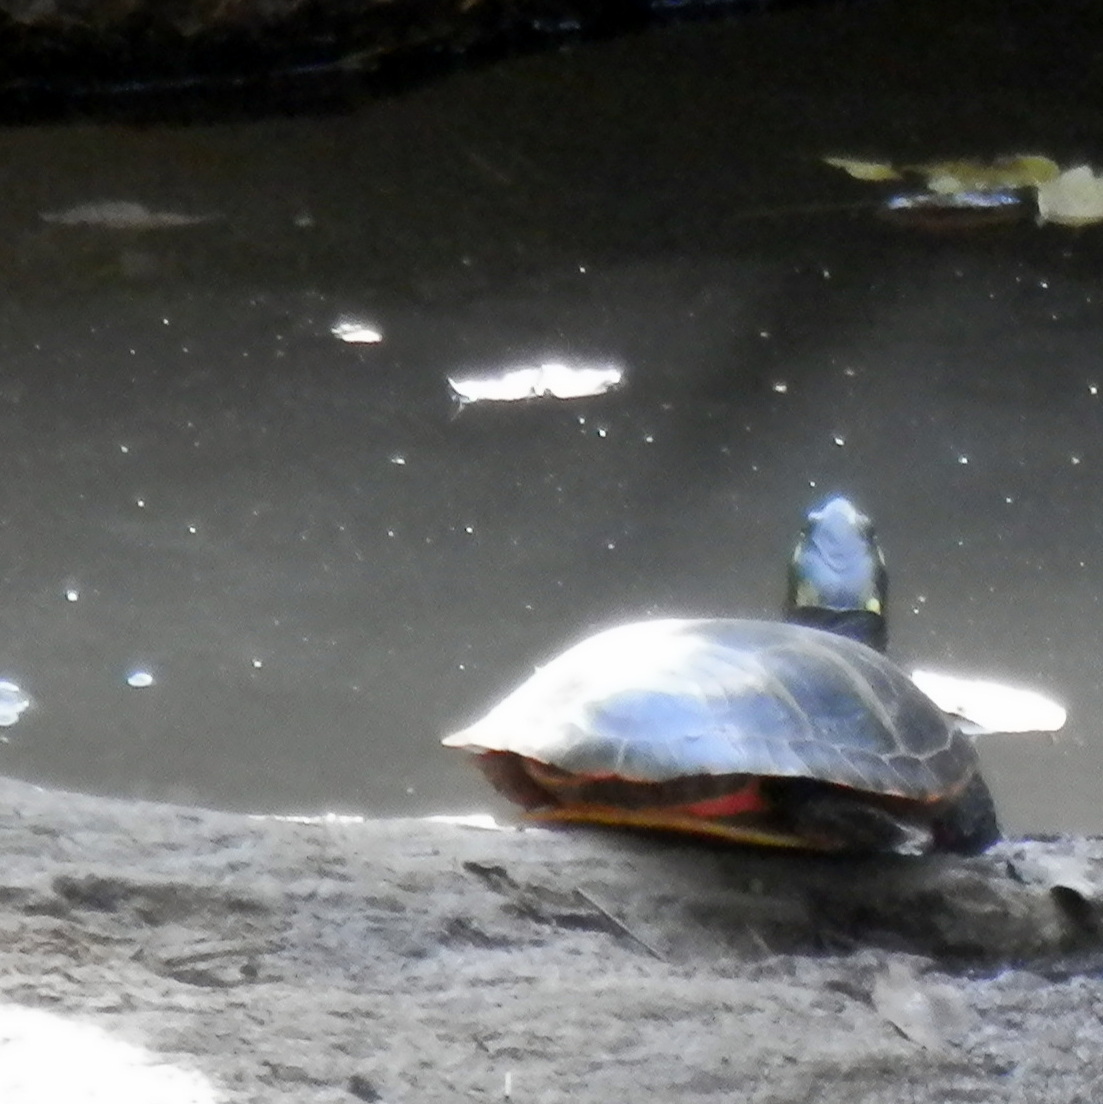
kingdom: Animalia
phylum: Chordata
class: Testudines
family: Emydidae
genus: Chrysemys
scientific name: Chrysemys picta
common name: Painted turtle
